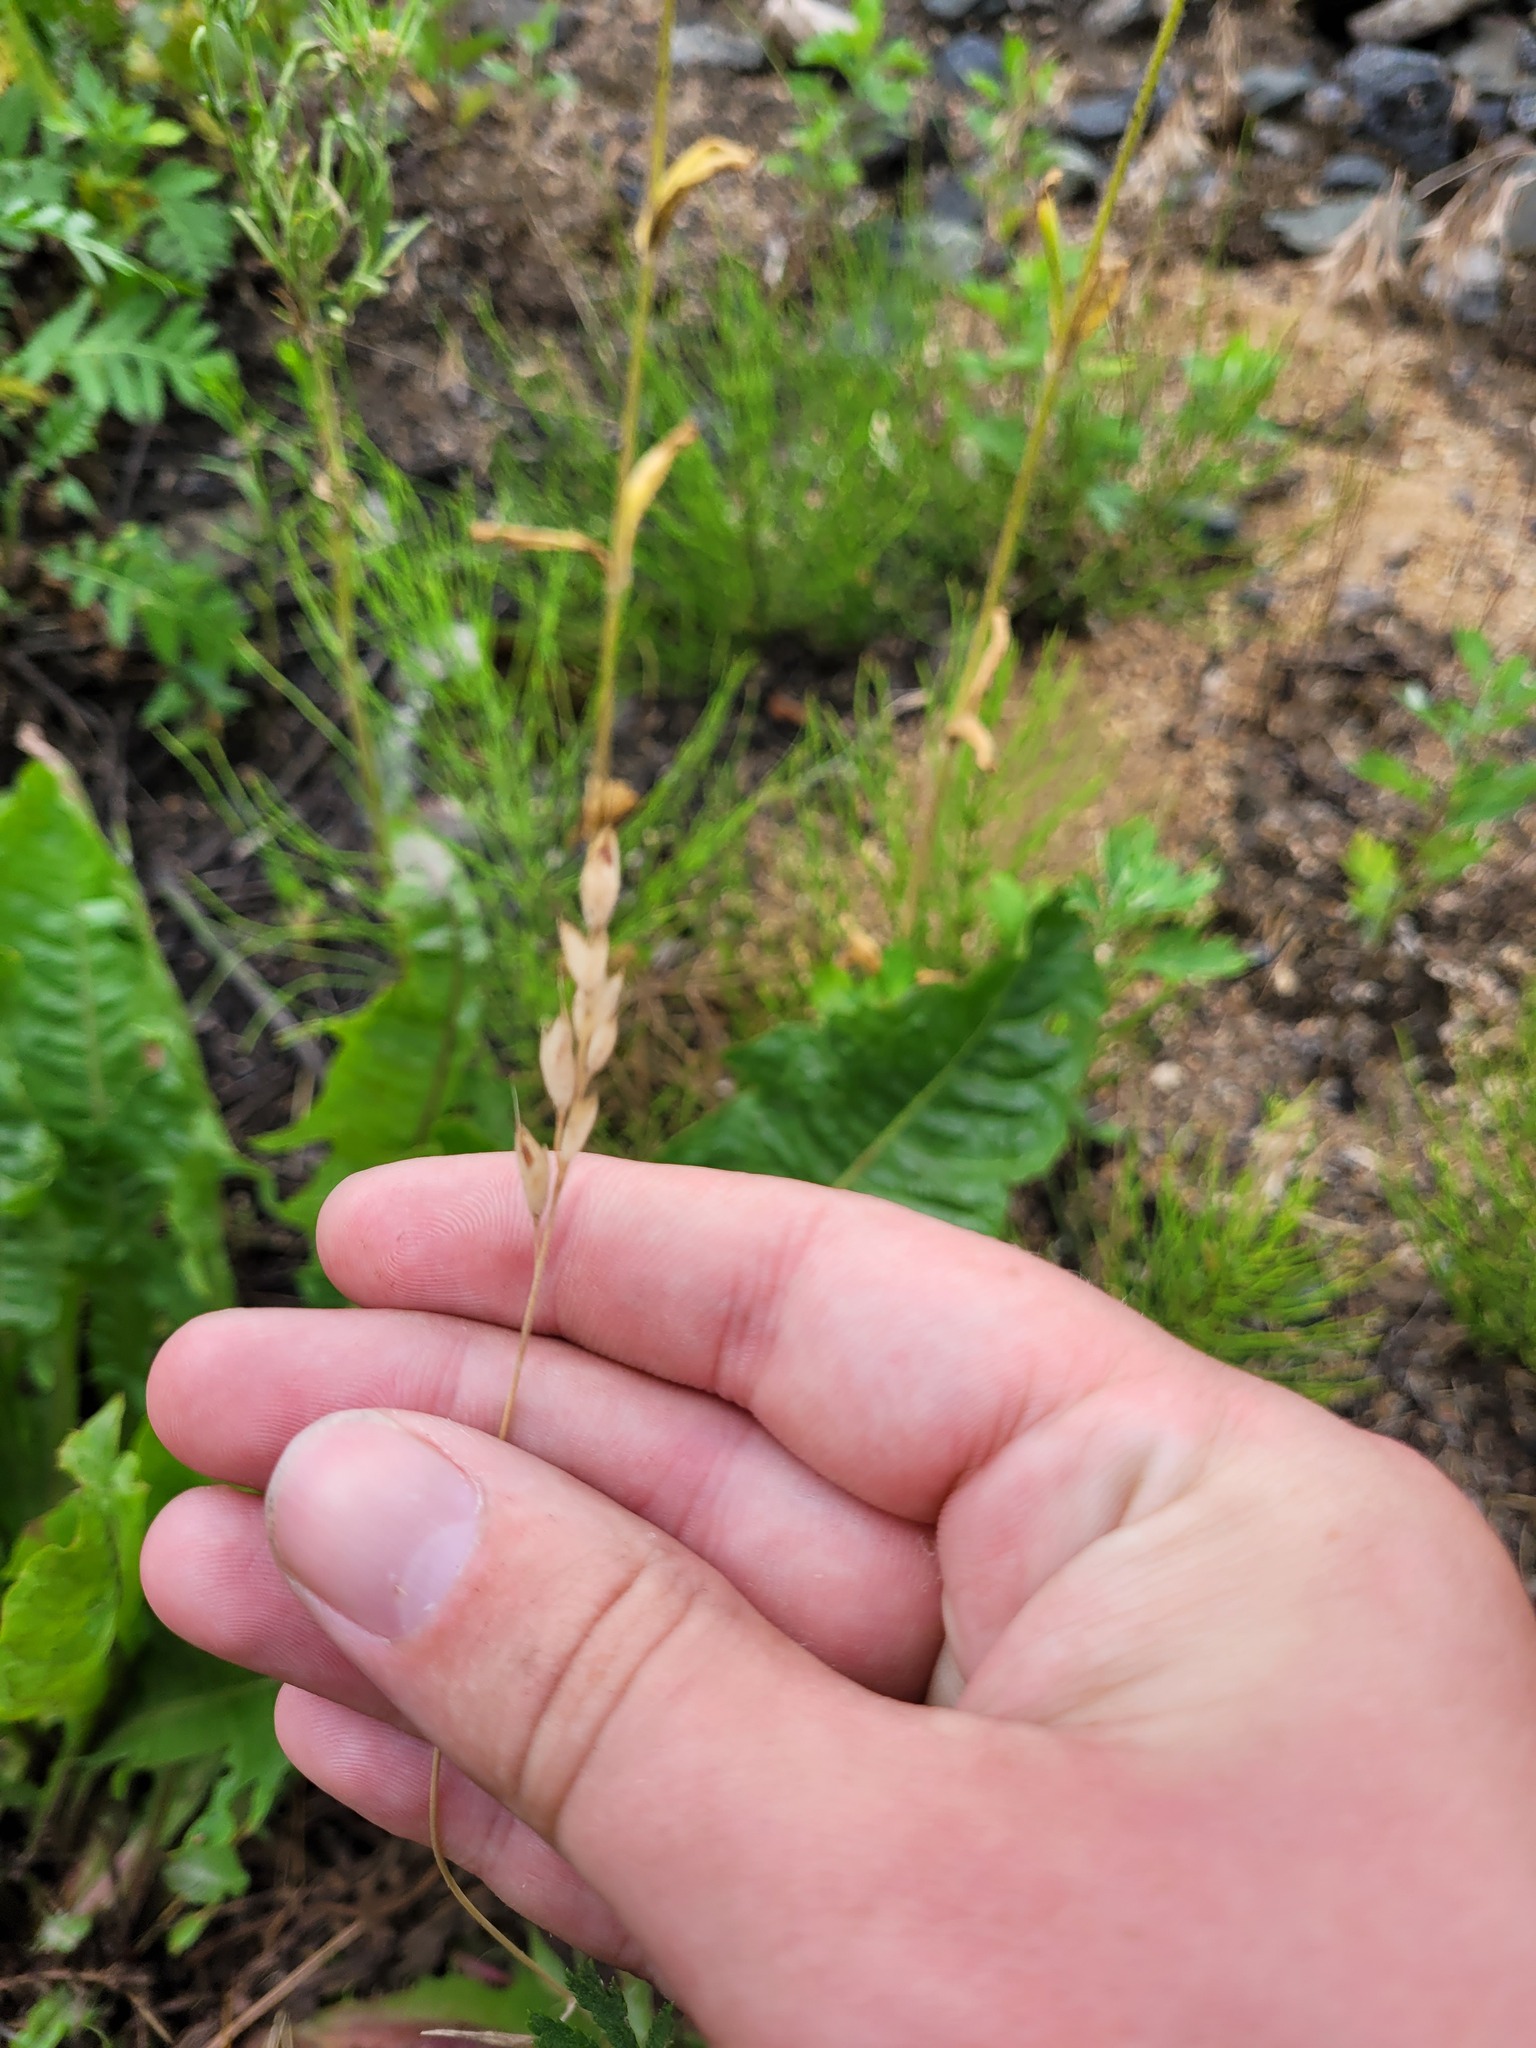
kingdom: Plantae
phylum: Tracheophyta
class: Liliopsida
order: Poales
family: Poaceae
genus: Bromus
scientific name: Bromus hordeaceus
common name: Soft brome
